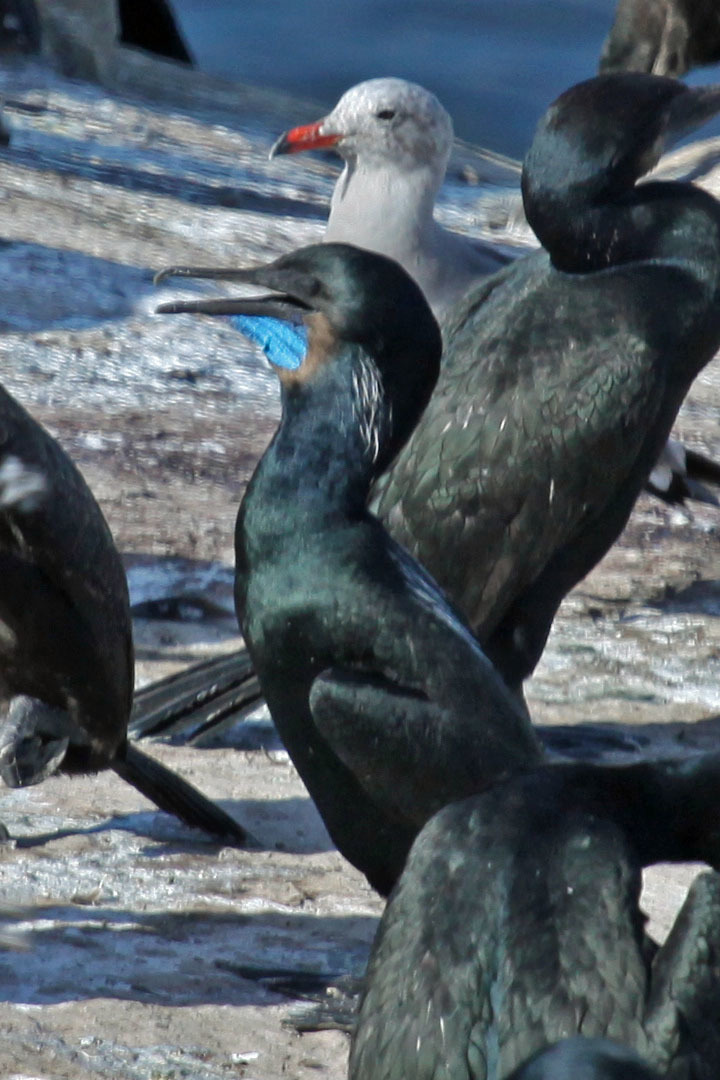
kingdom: Animalia
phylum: Chordata
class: Aves
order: Suliformes
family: Phalacrocoracidae
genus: Urile
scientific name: Urile penicillatus
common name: Brandt's cormorant
